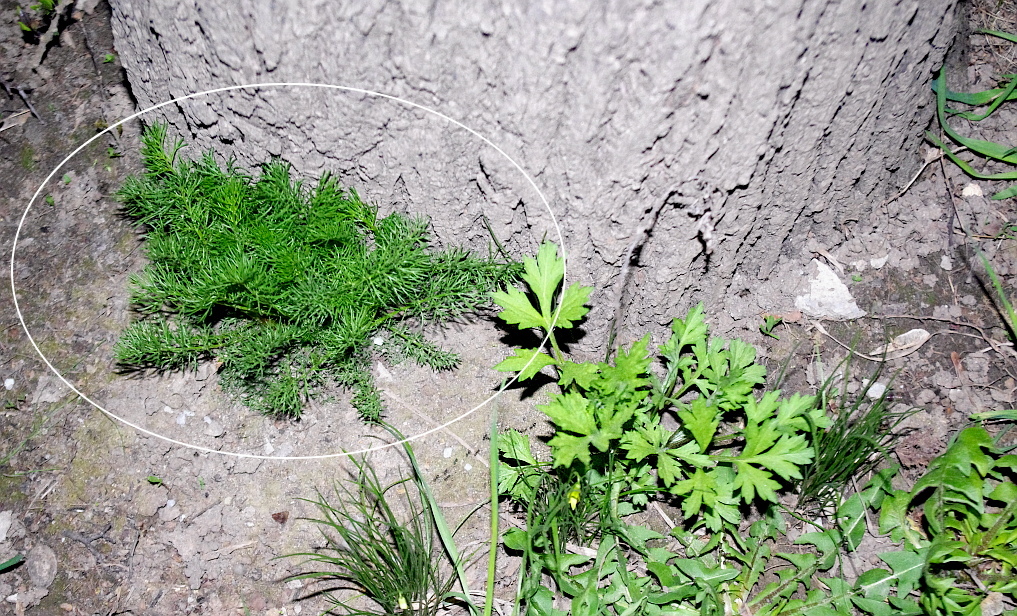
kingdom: Plantae
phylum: Tracheophyta
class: Magnoliopsida
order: Asterales
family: Asteraceae
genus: Tripleurospermum
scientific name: Tripleurospermum inodorum
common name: Scentless mayweed
